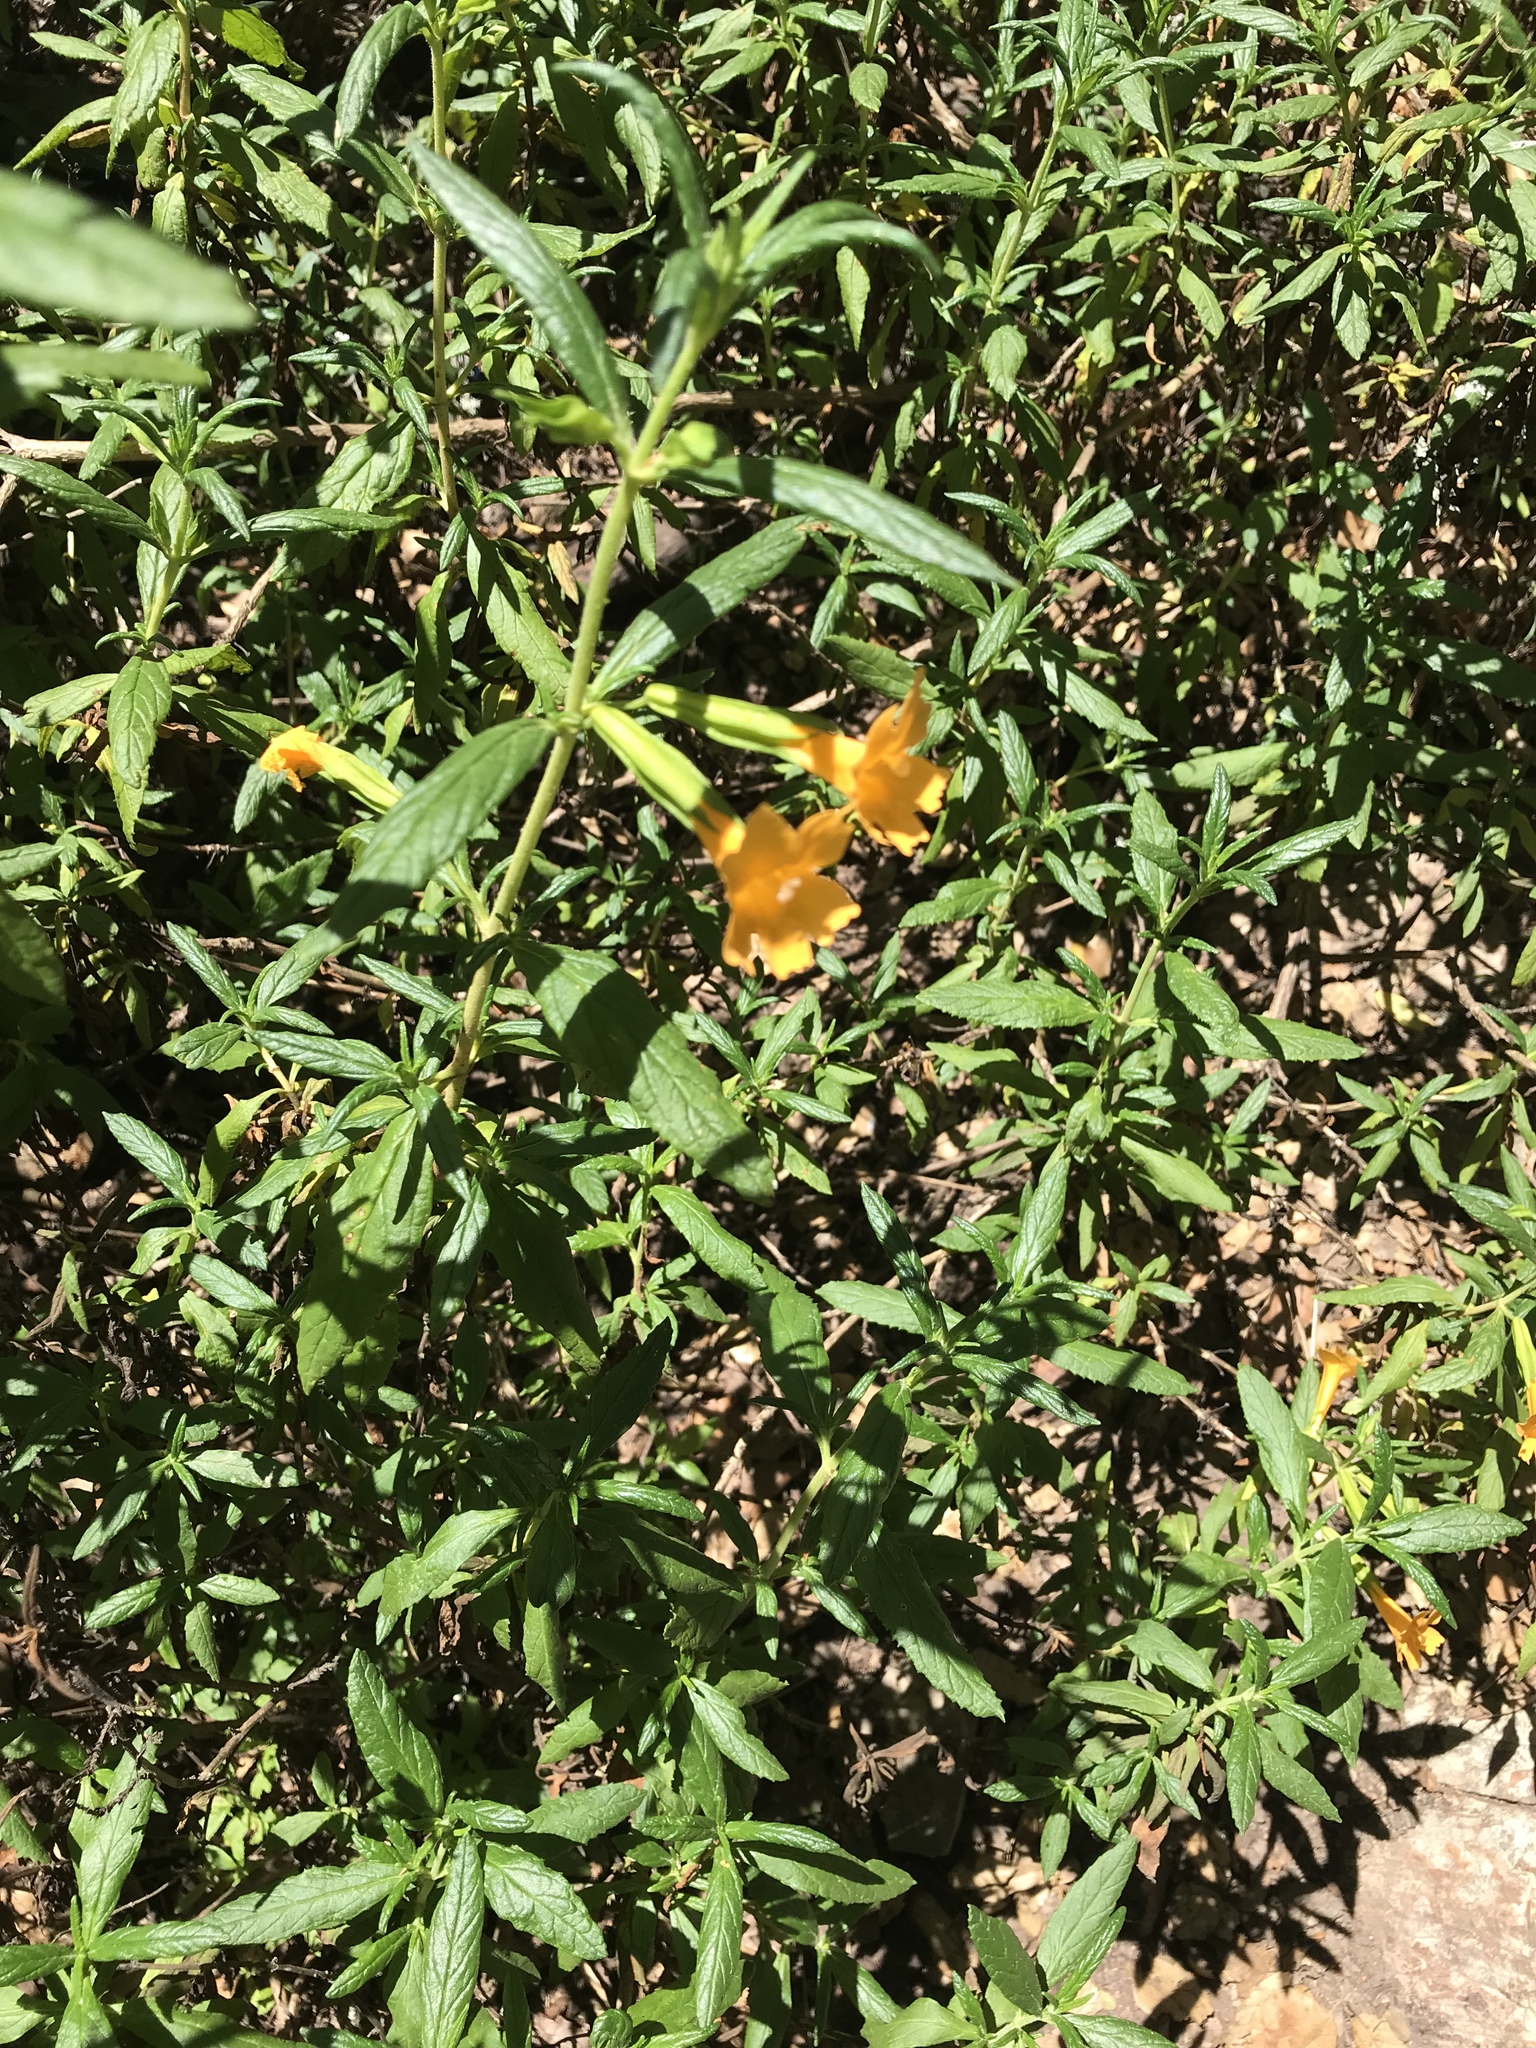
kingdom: Plantae
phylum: Tracheophyta
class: Magnoliopsida
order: Lamiales
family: Phrymaceae
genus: Diplacus
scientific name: Diplacus aurantiacus
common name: Bush monkey-flower
